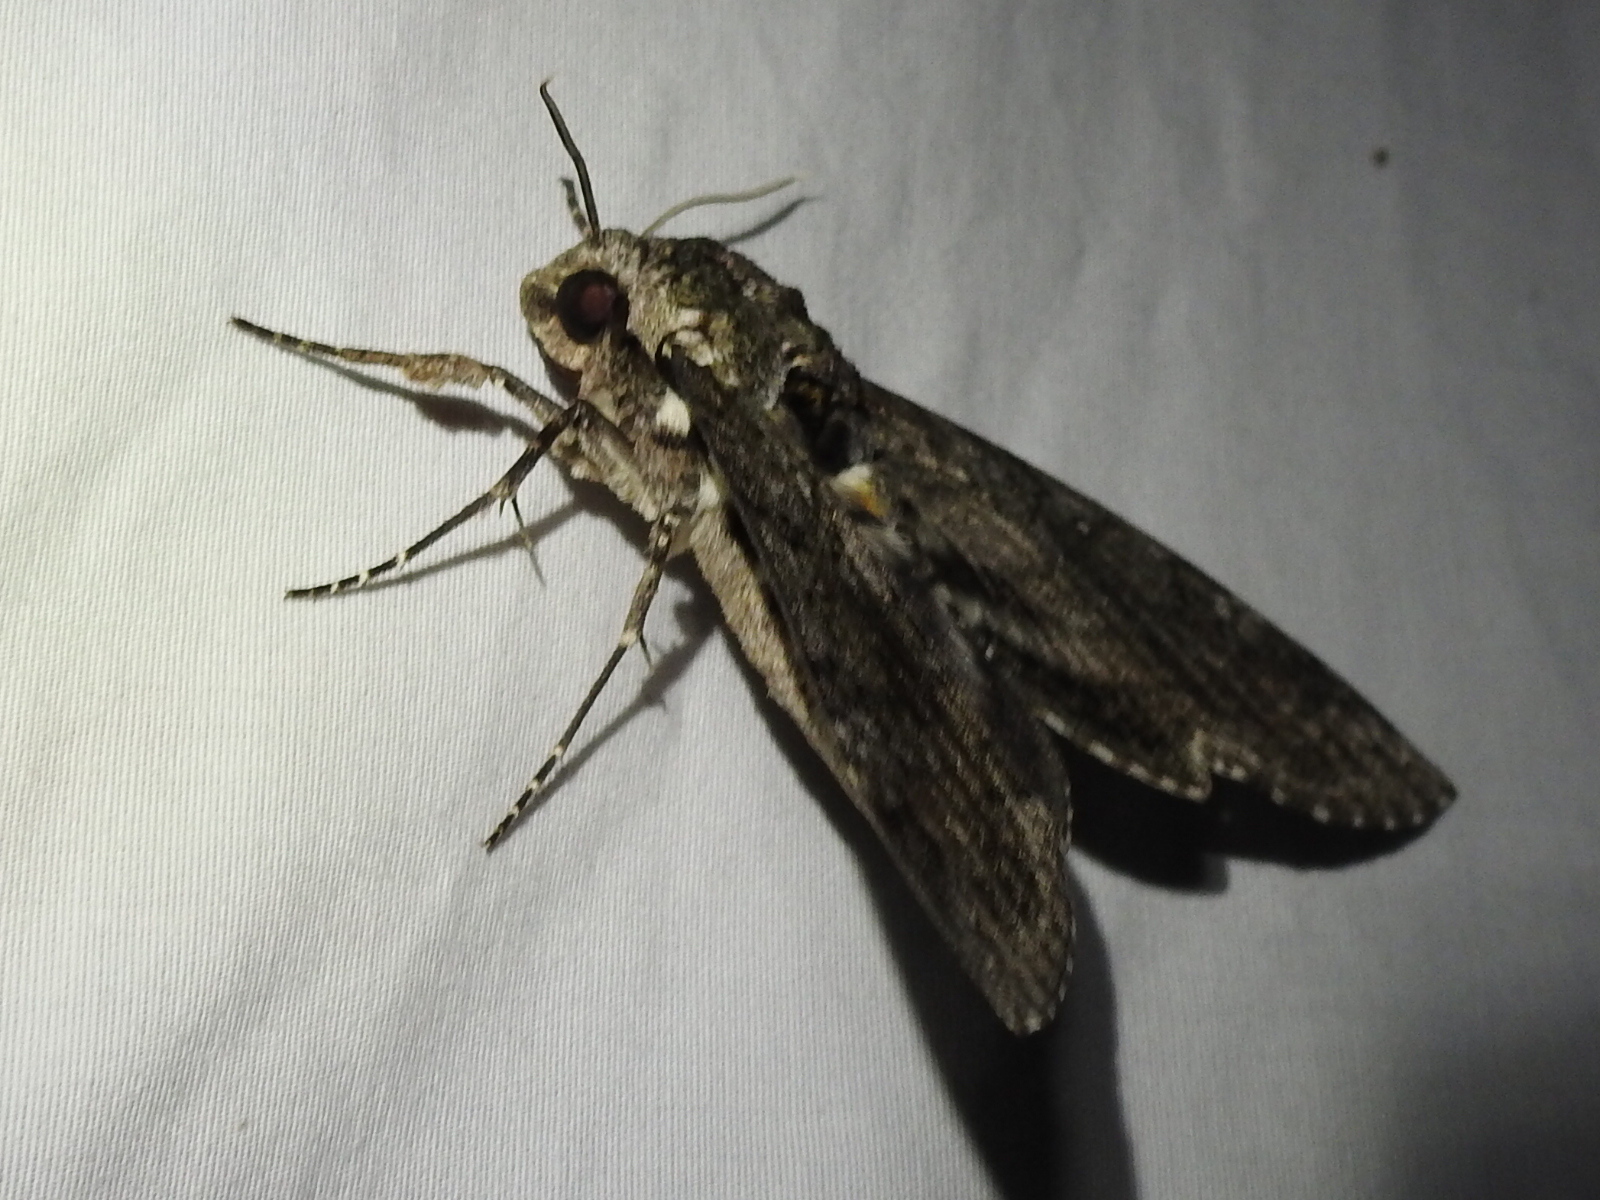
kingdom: Animalia
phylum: Arthropoda
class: Insecta
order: Lepidoptera
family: Sphingidae
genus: Manduca
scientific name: Manduca sexta
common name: Carolina sphinx
